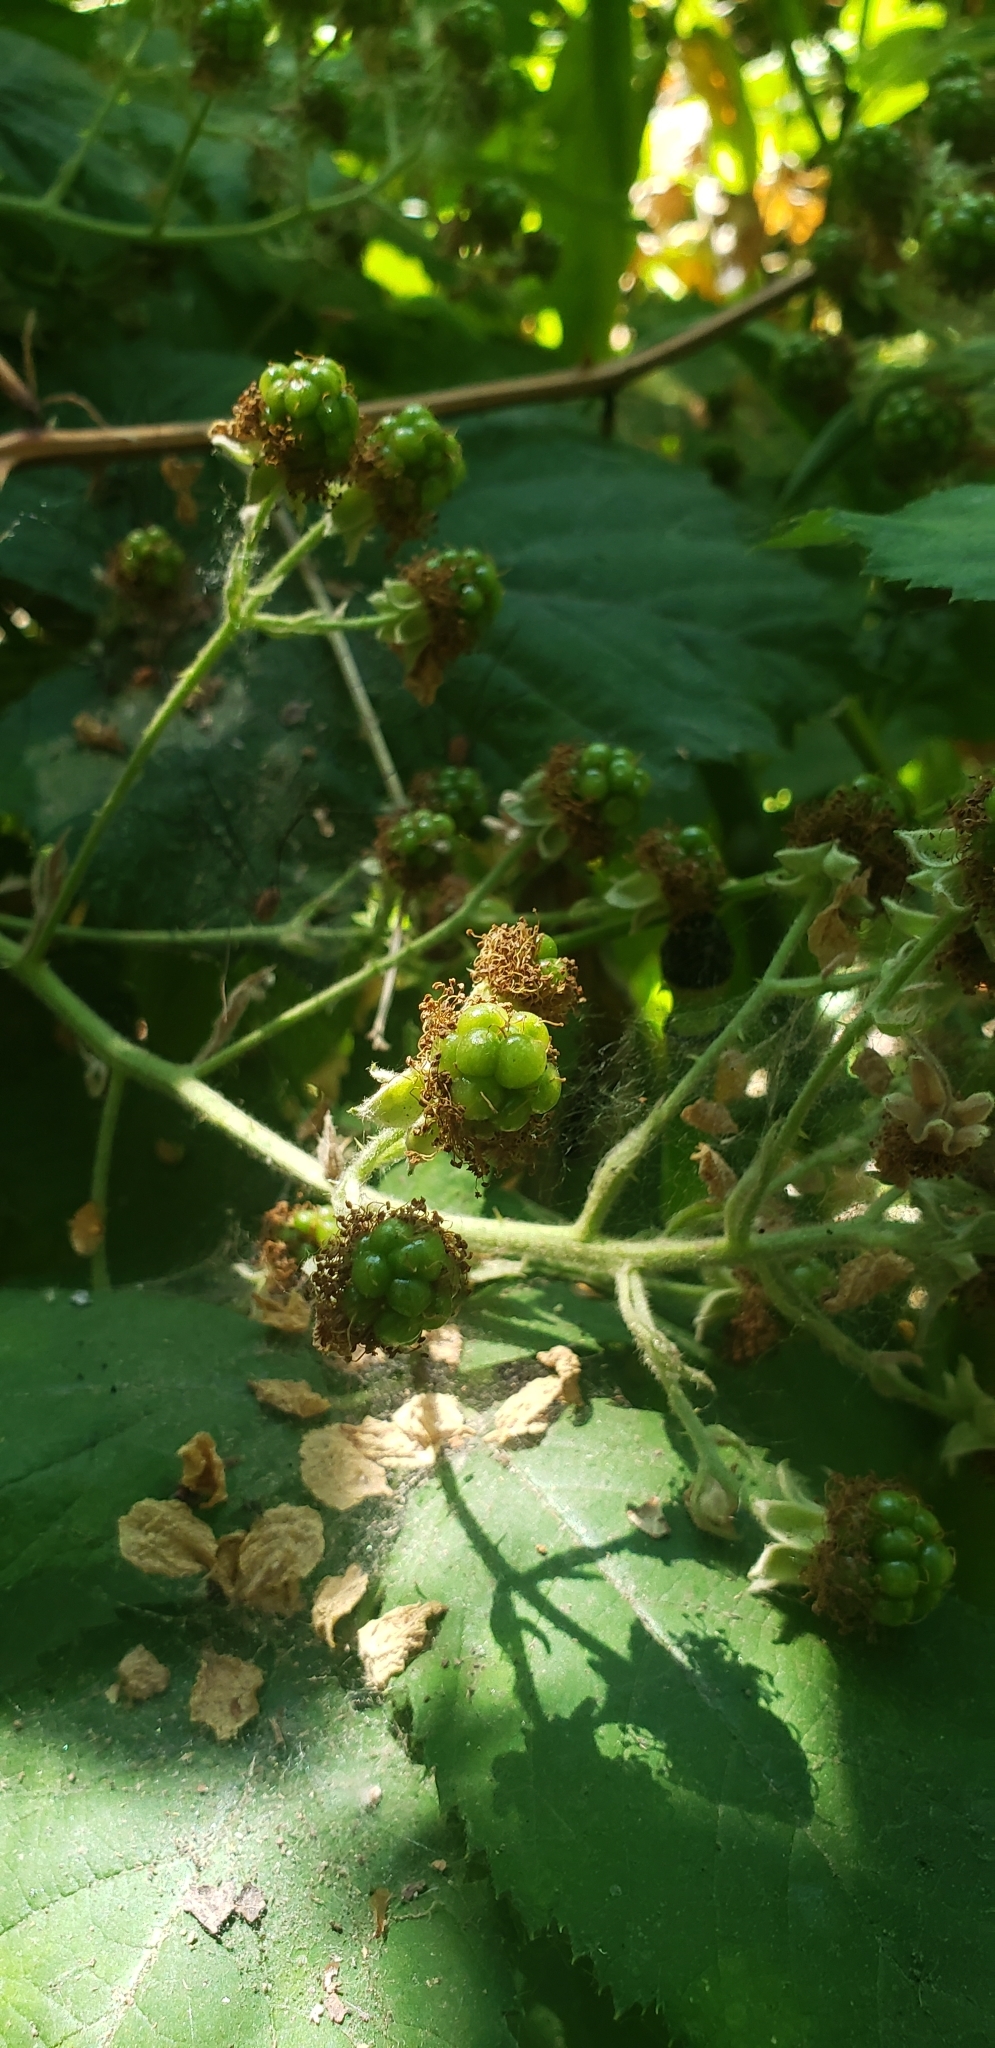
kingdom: Plantae
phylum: Tracheophyta
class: Magnoliopsida
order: Rosales
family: Rosaceae
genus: Rubus
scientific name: Rubus armeniacus
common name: Himalayan blackberry
